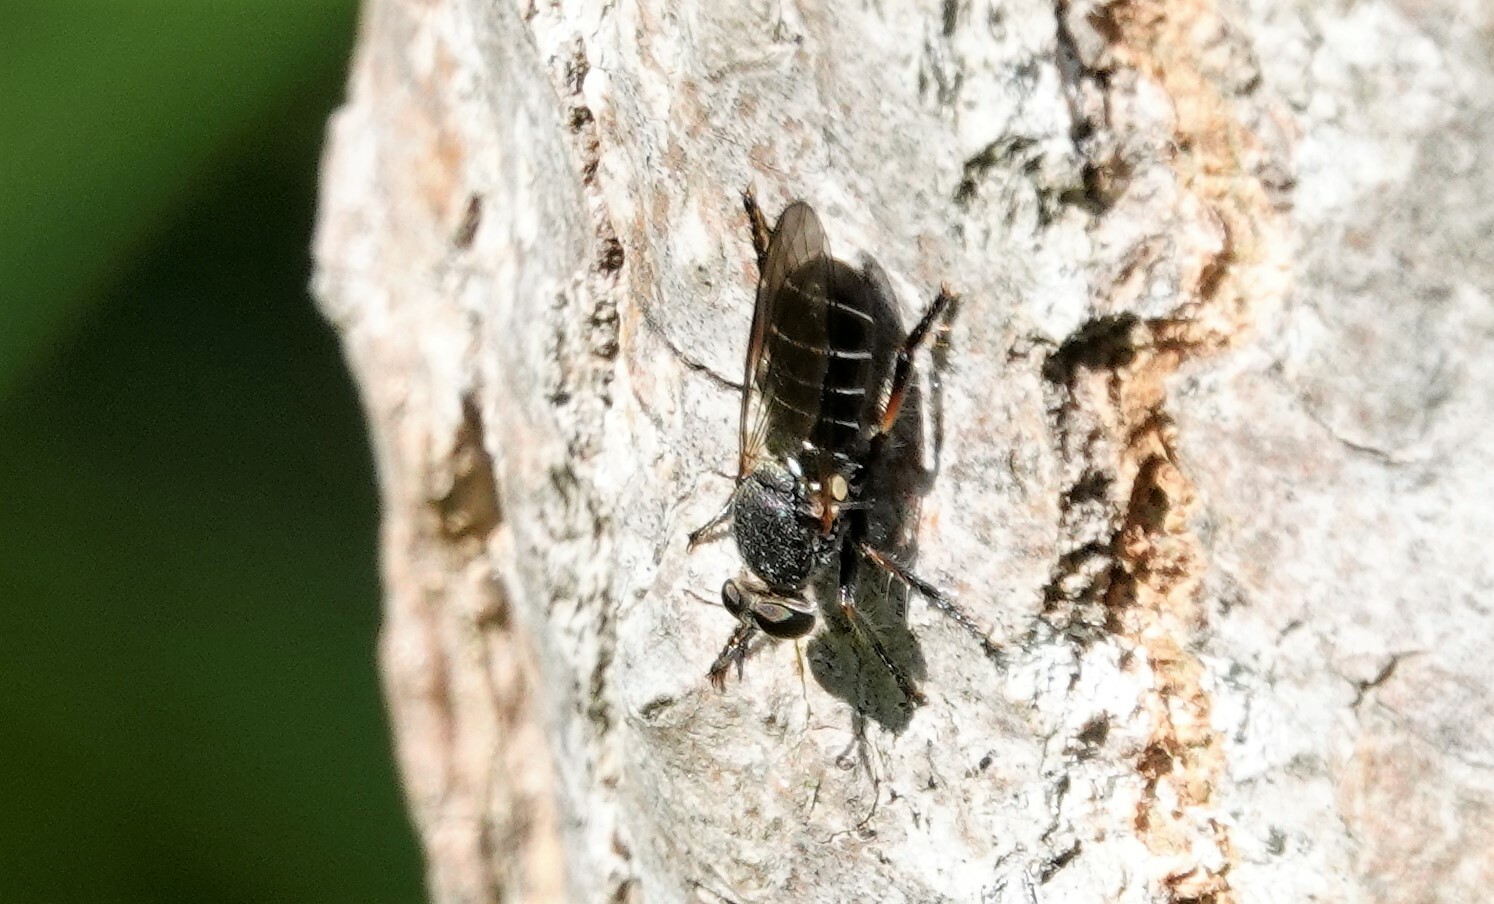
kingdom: Animalia
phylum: Arthropoda
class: Insecta
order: Diptera
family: Asilidae
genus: Atomosia
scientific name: Atomosia puella
